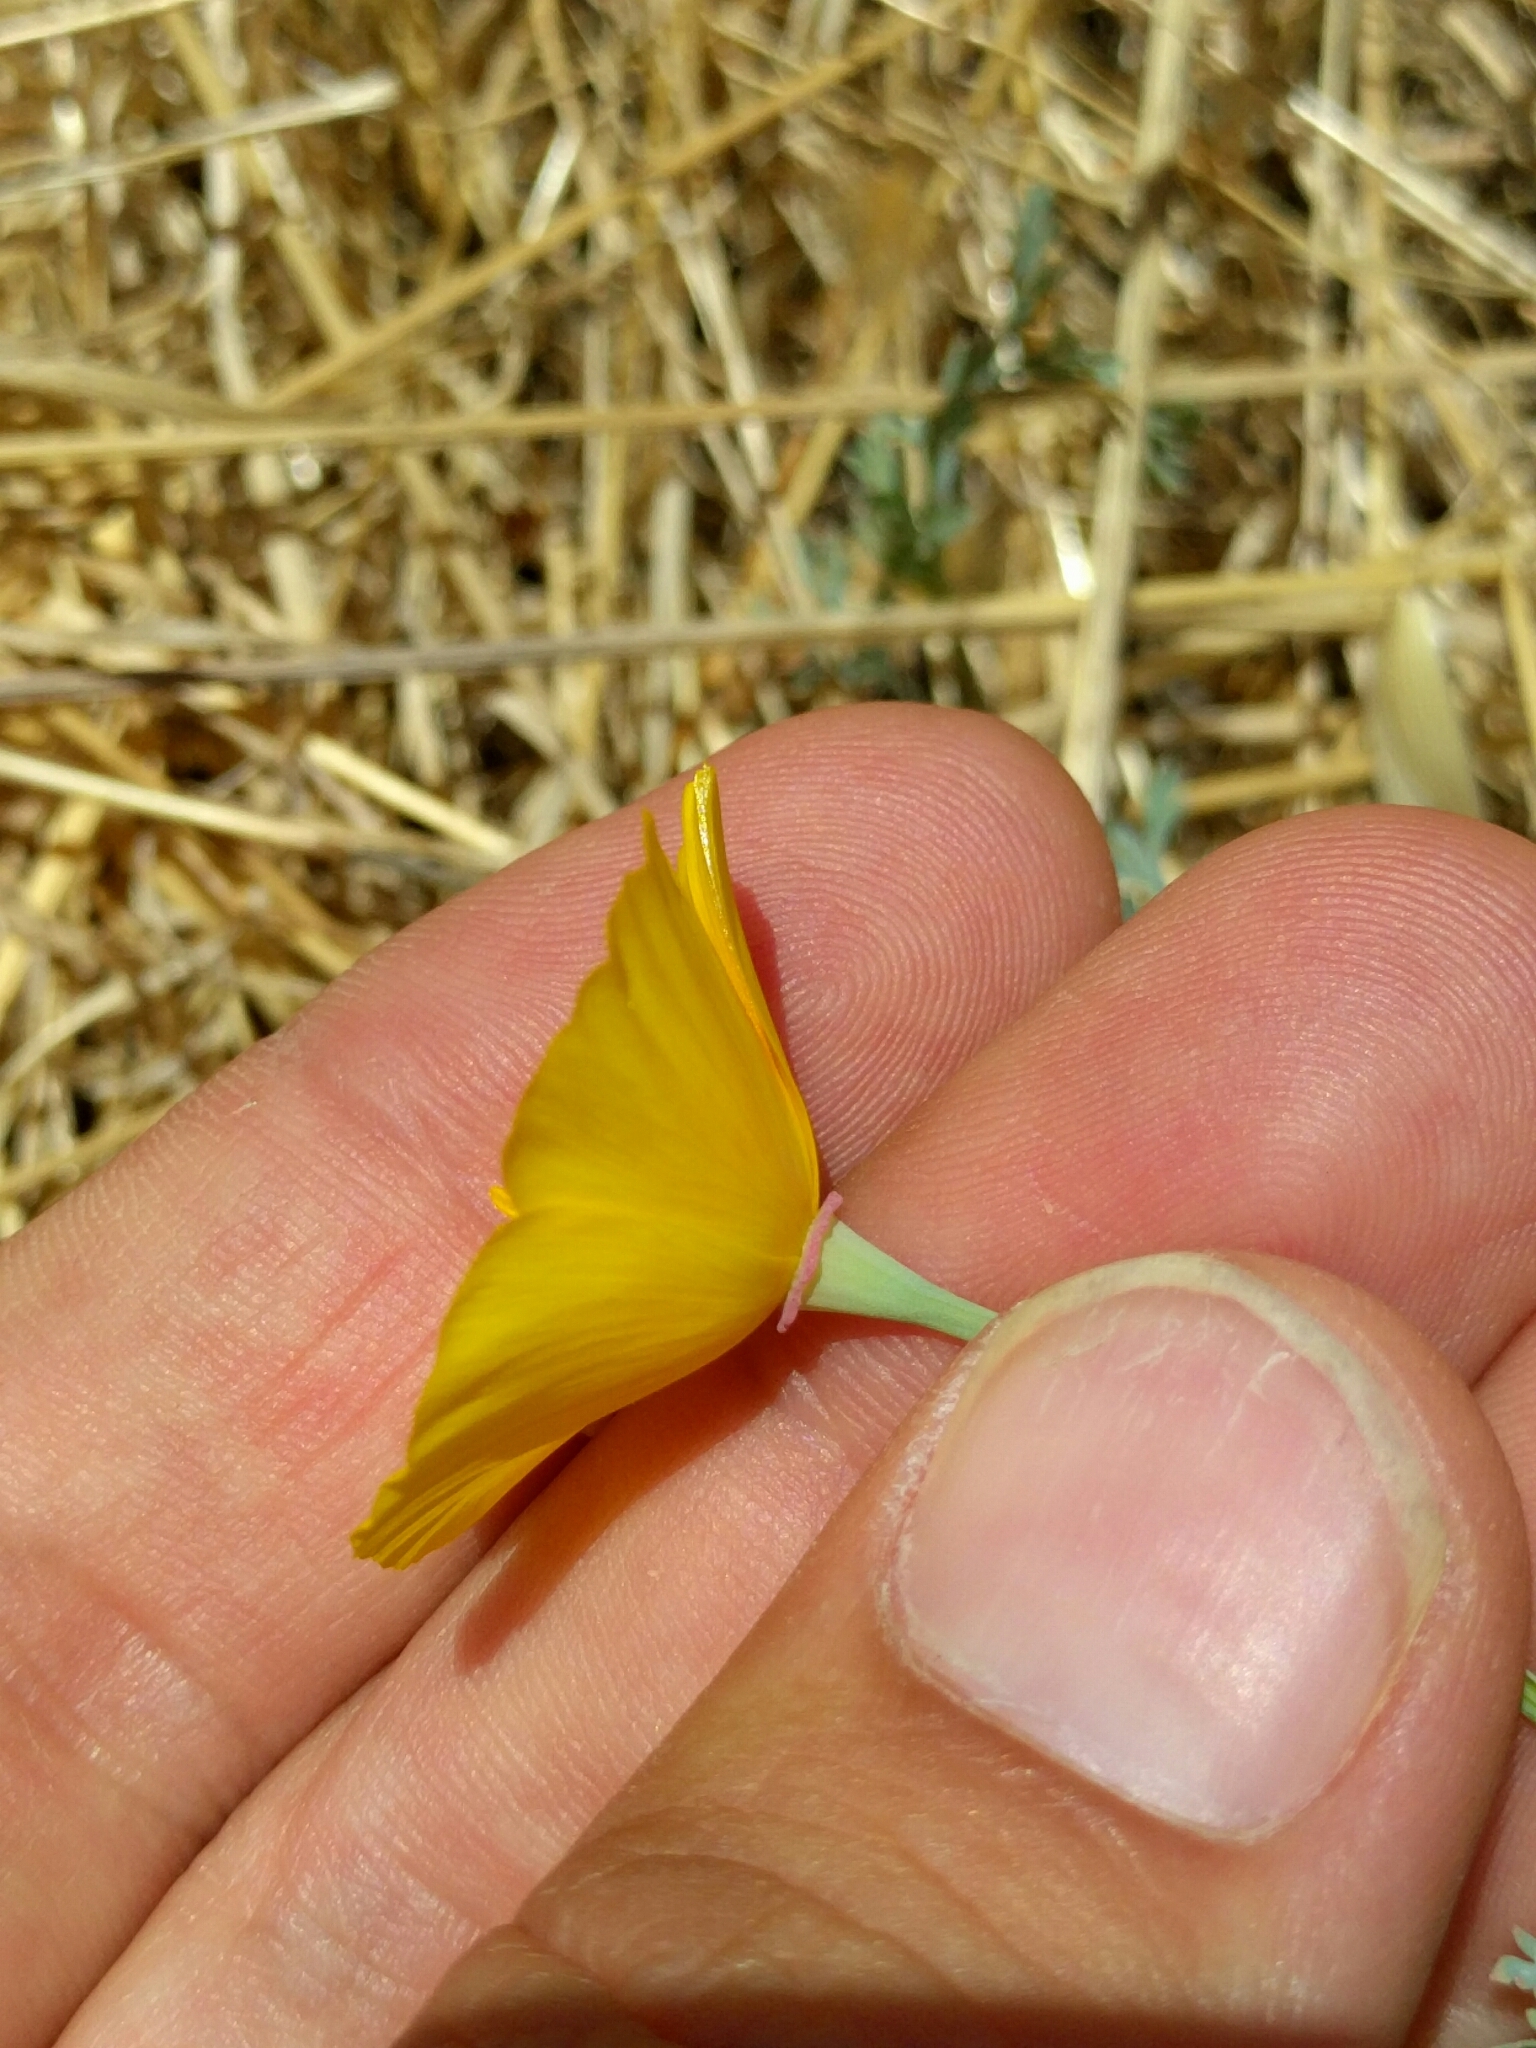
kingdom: Plantae
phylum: Tracheophyta
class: Magnoliopsida
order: Ranunculales
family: Papaveraceae
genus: Eschscholzia
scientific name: Eschscholzia californica
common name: California poppy
